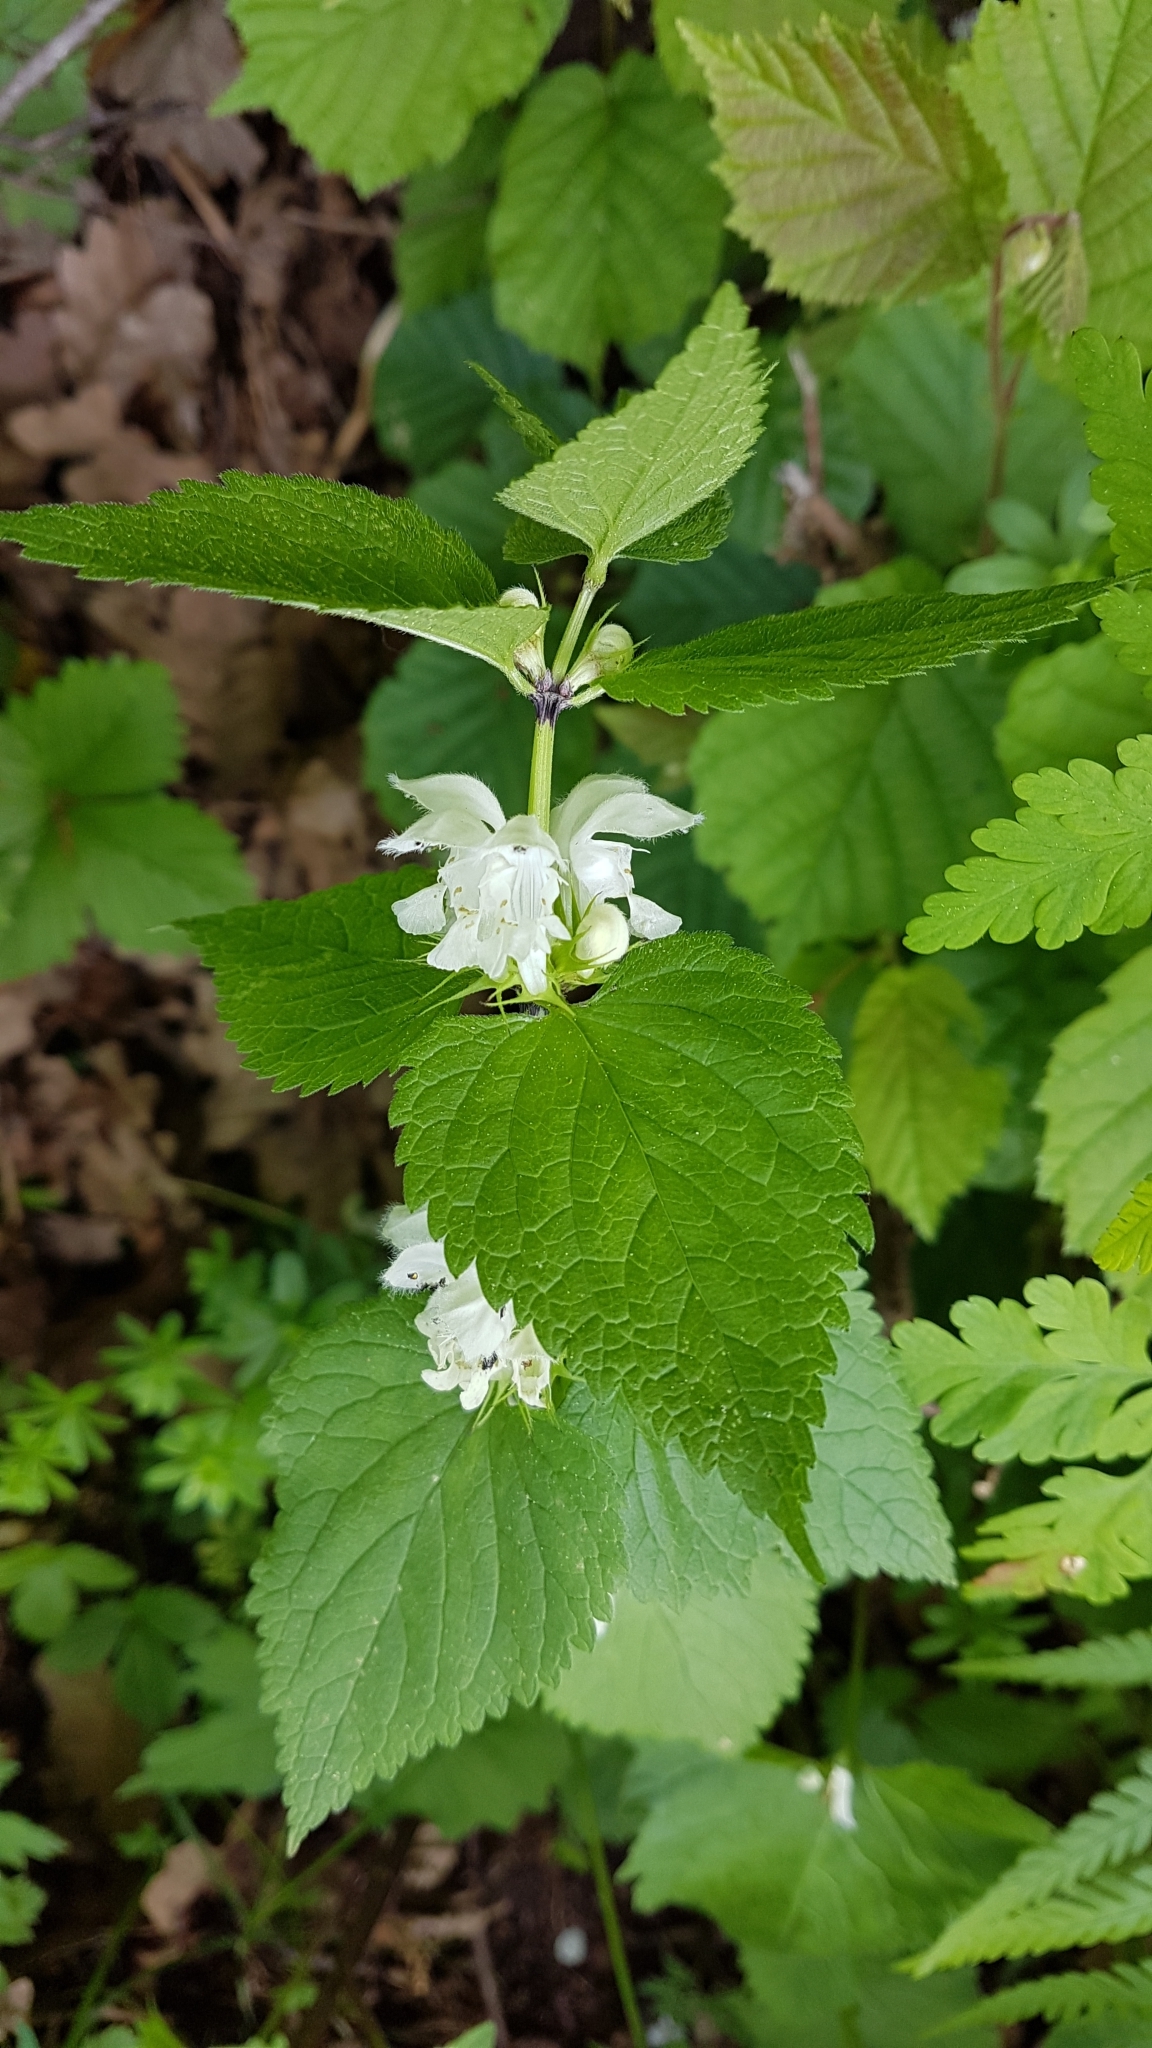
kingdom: Plantae
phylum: Tracheophyta
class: Magnoliopsida
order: Lamiales
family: Lamiaceae
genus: Lamium
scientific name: Lamium album
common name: White dead-nettle
